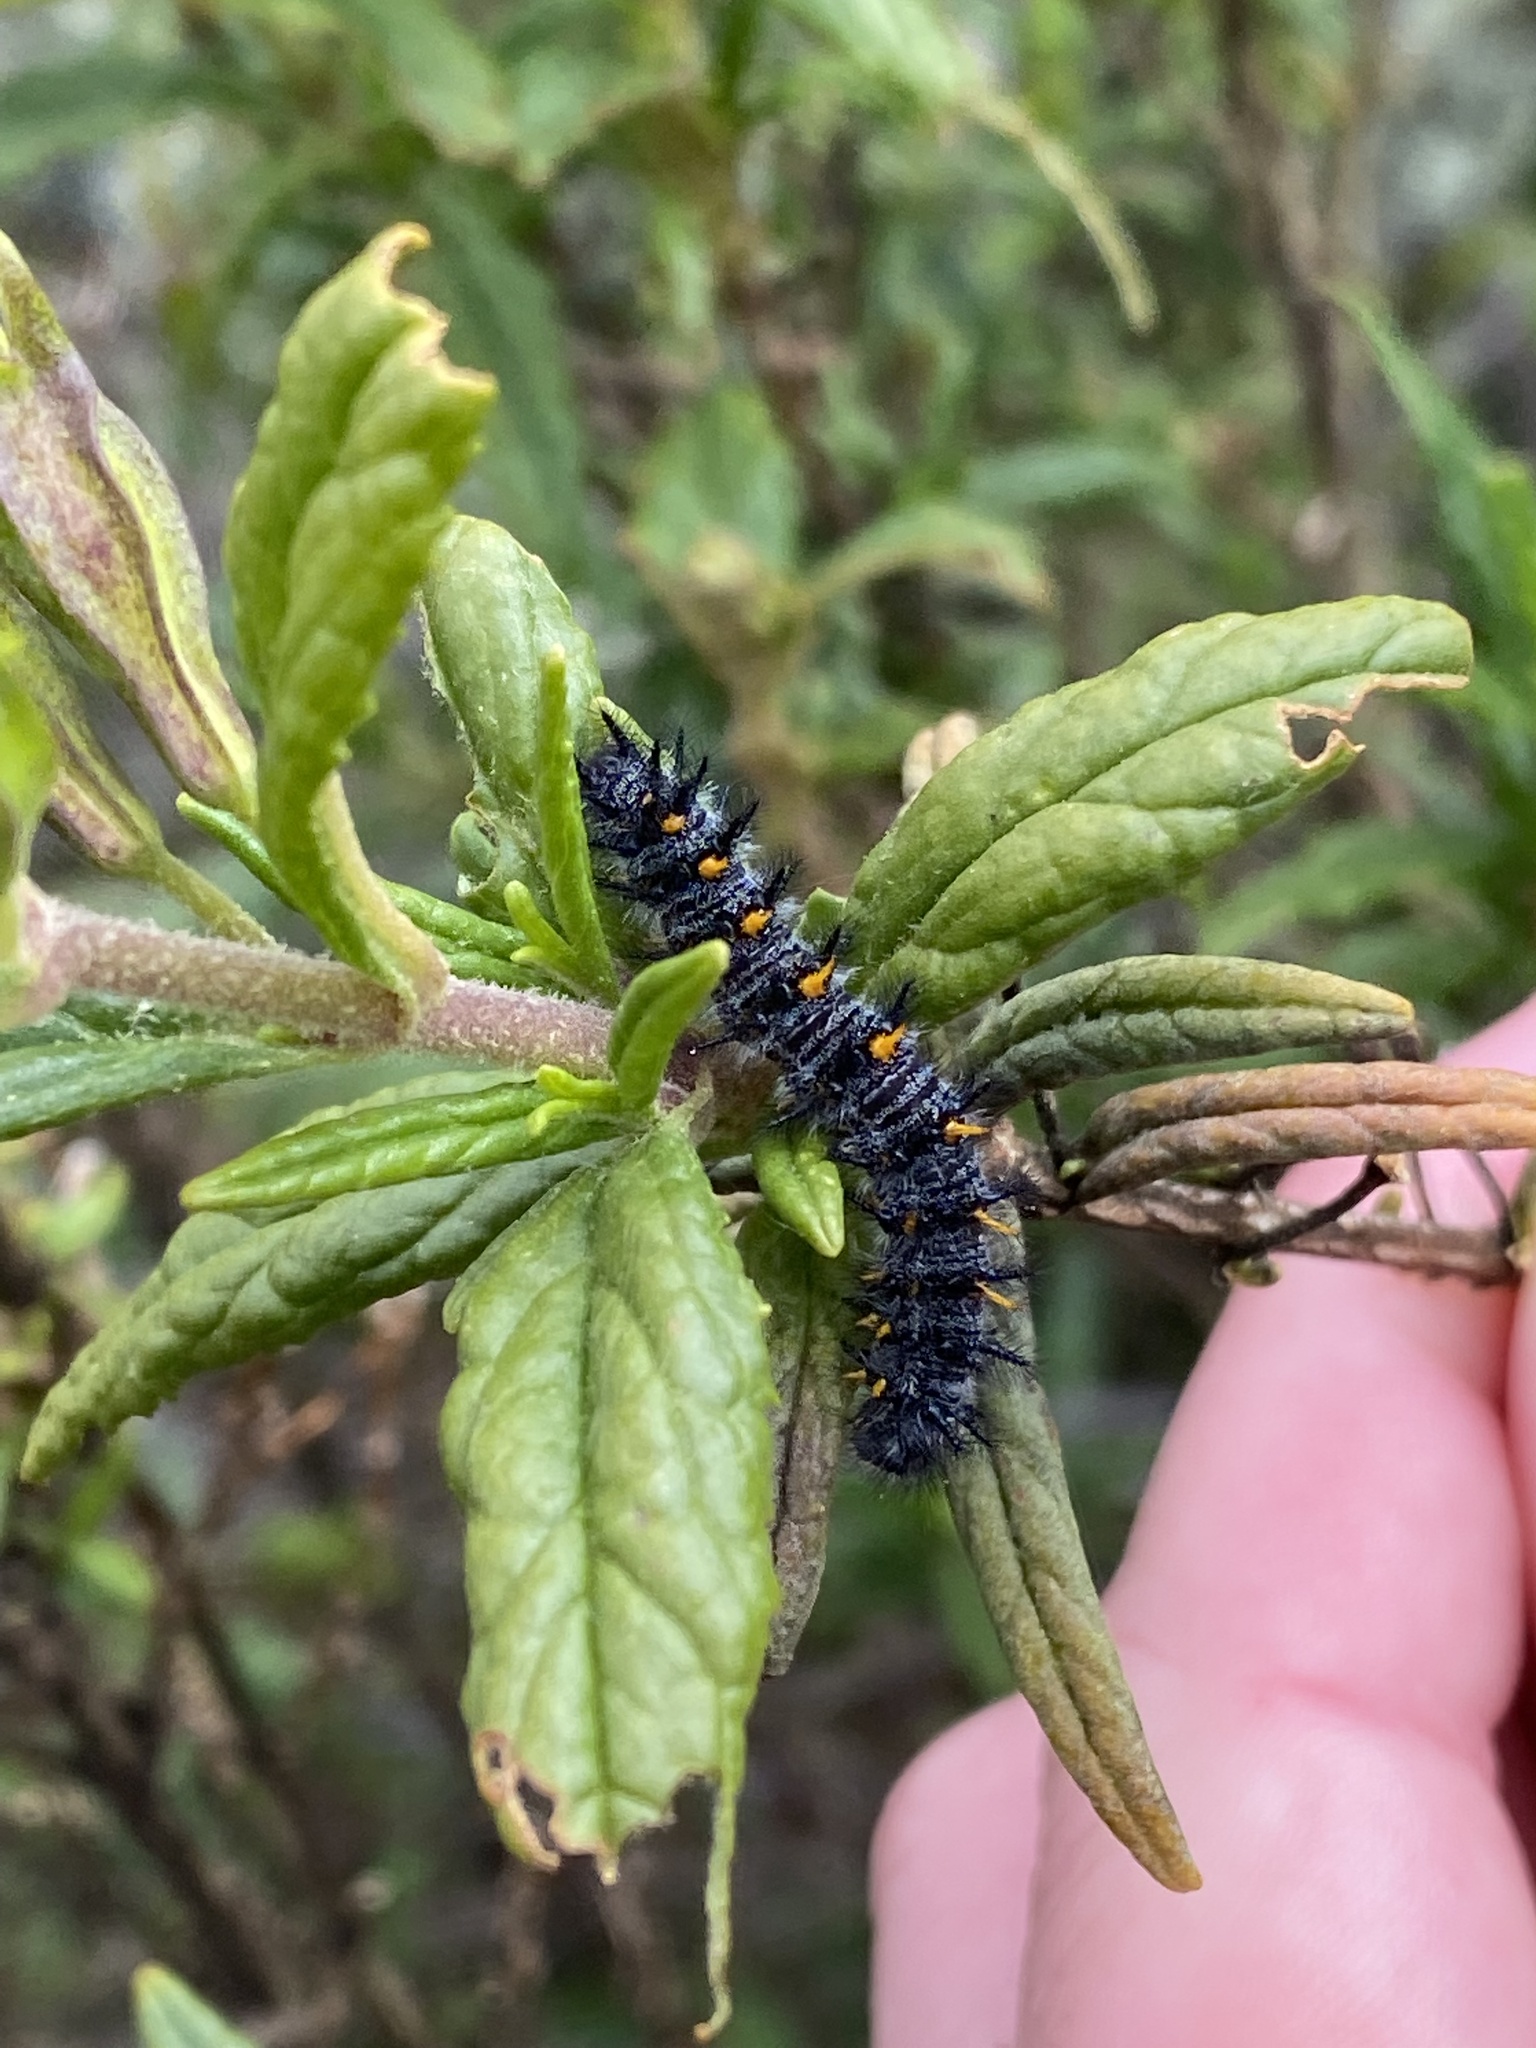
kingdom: Animalia
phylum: Arthropoda
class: Insecta
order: Lepidoptera
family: Nymphalidae
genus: Occidryas
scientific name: Occidryas chalcedona
